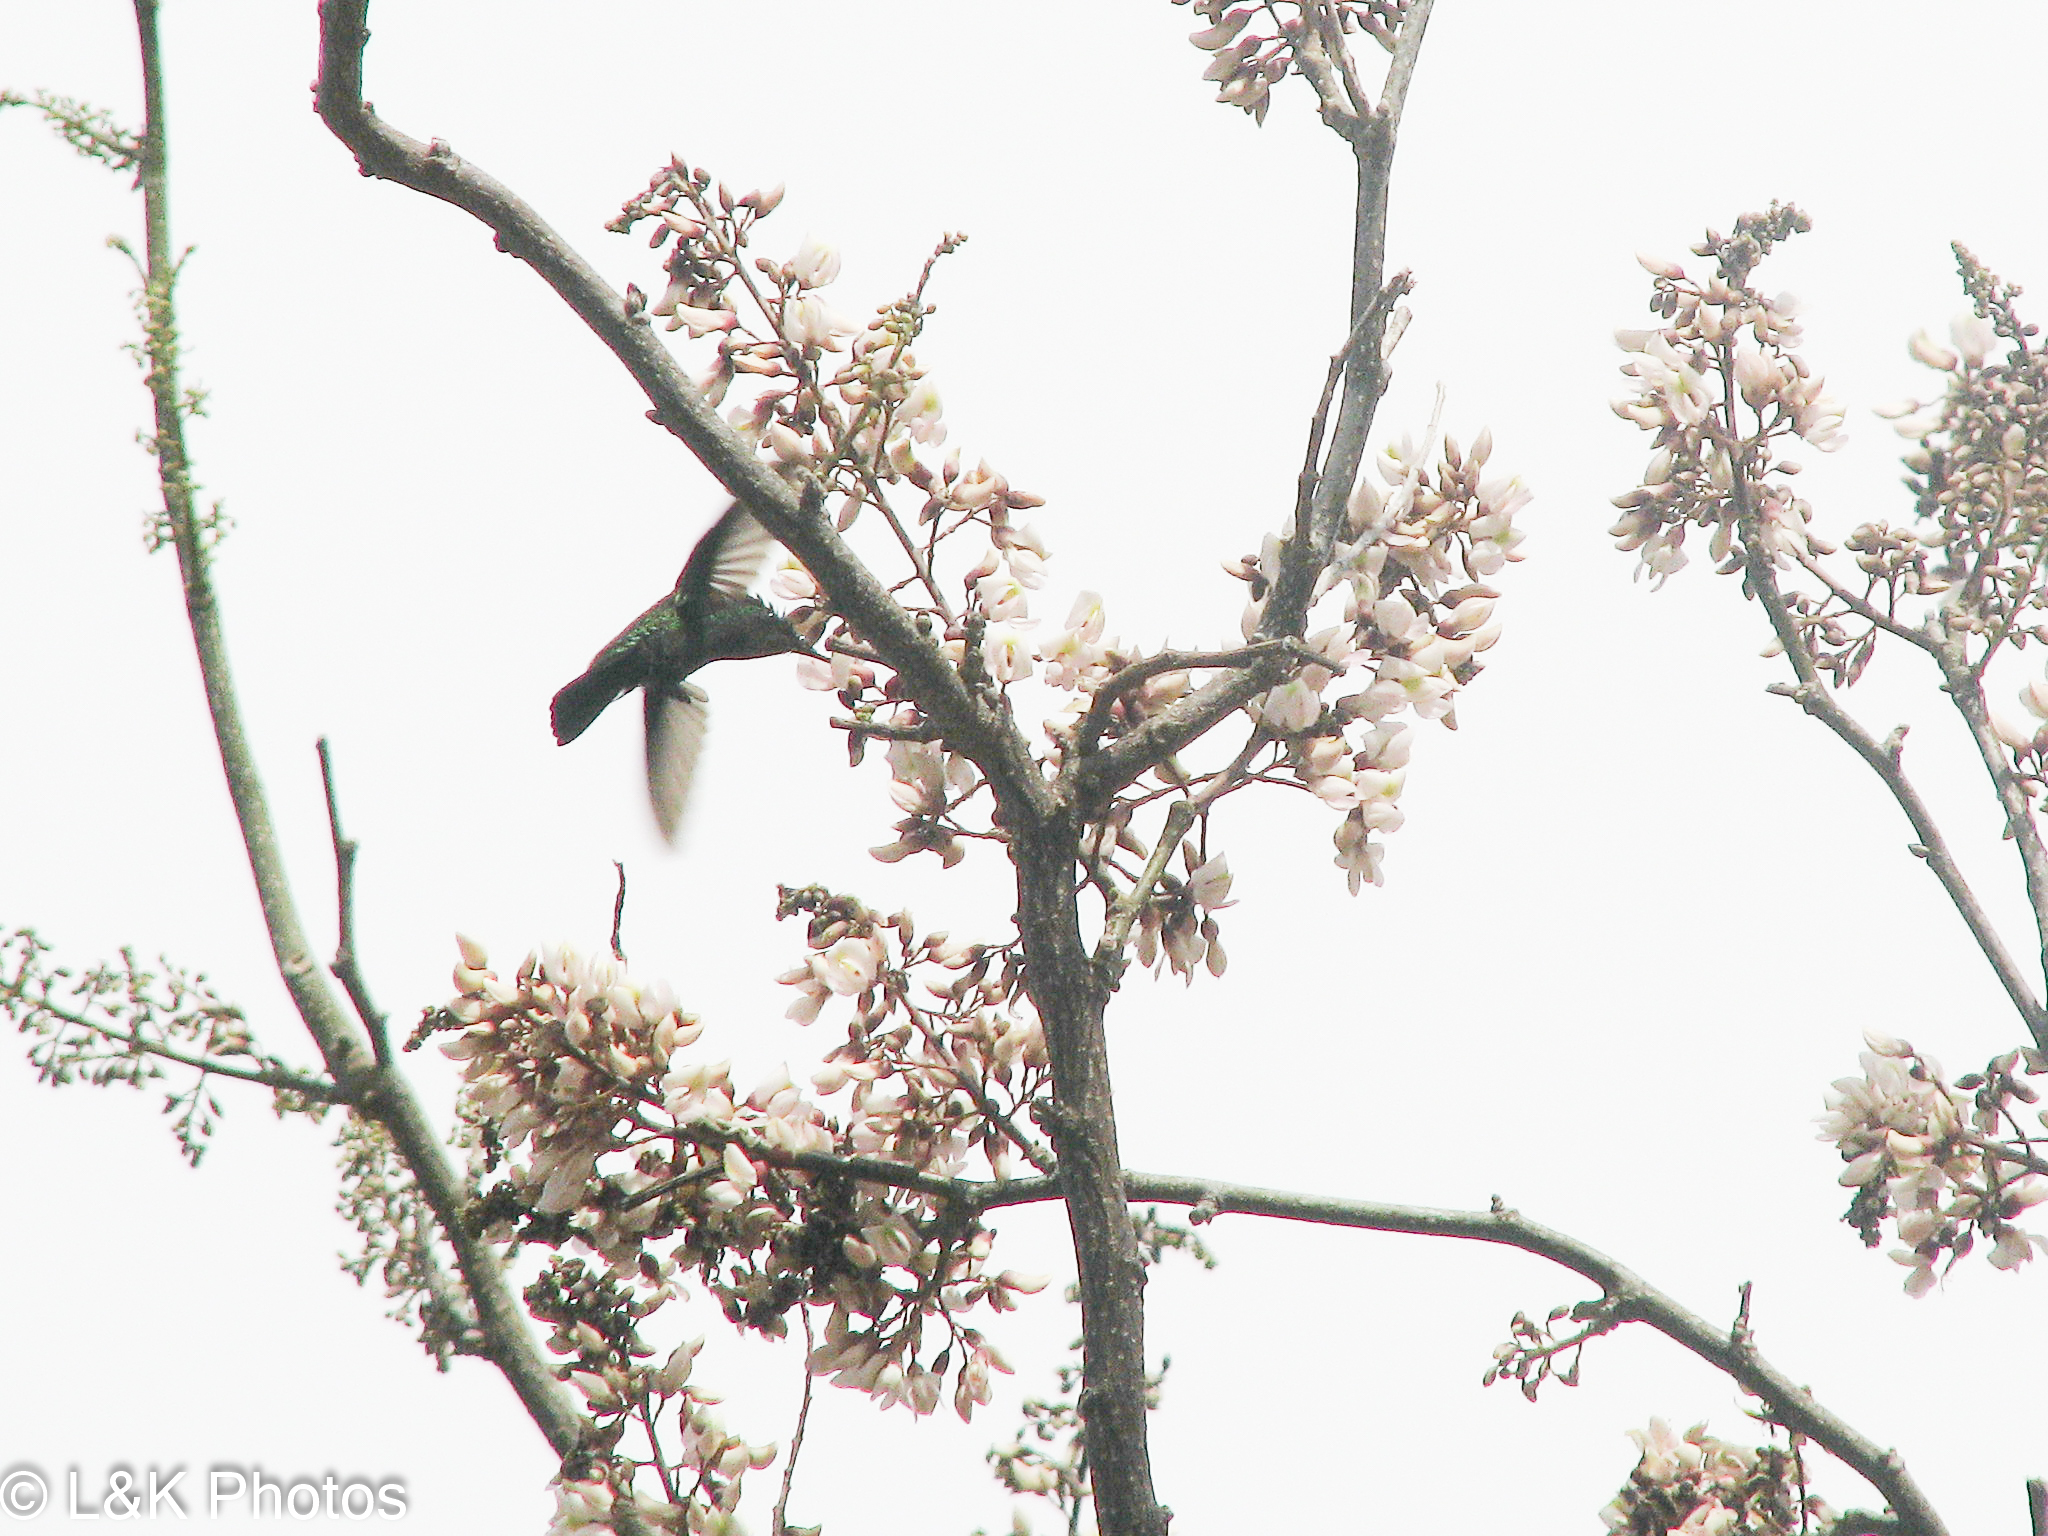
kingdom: Animalia
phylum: Chordata
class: Aves
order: Apodiformes
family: Trochilidae
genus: Orthorhyncus
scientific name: Orthorhyncus cristatus
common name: Antillean crested hummingbird
